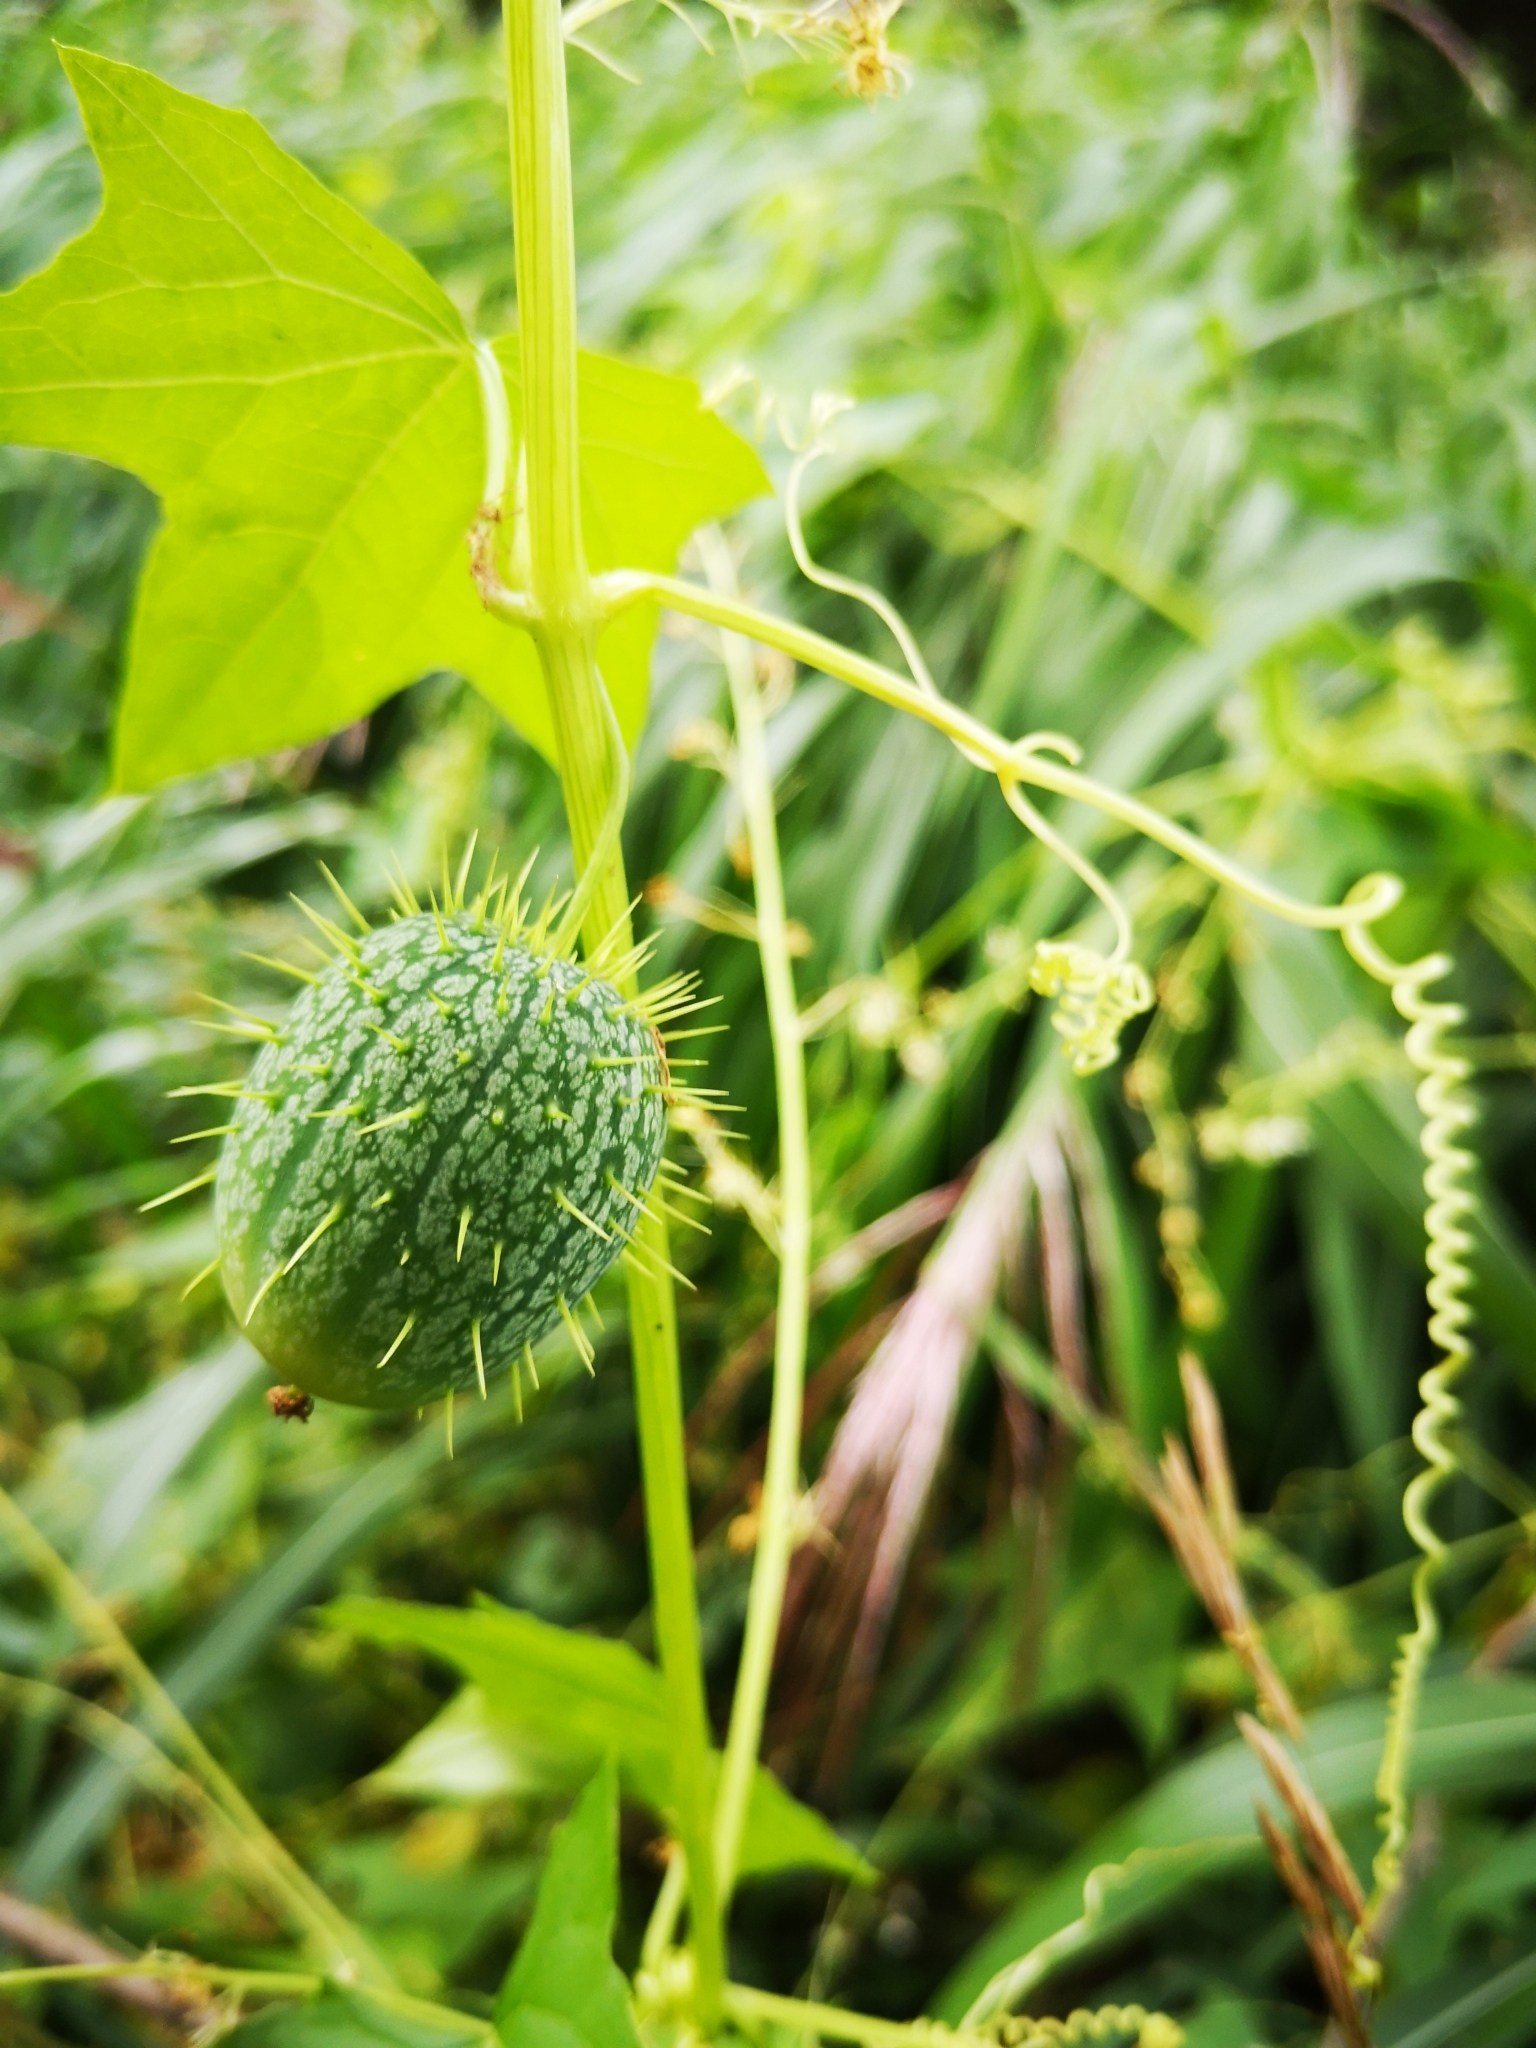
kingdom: Plantae
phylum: Tracheophyta
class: Magnoliopsida
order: Cucurbitales
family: Cucurbitaceae
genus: Echinocystis
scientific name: Echinocystis lobata
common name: Wild cucumber
